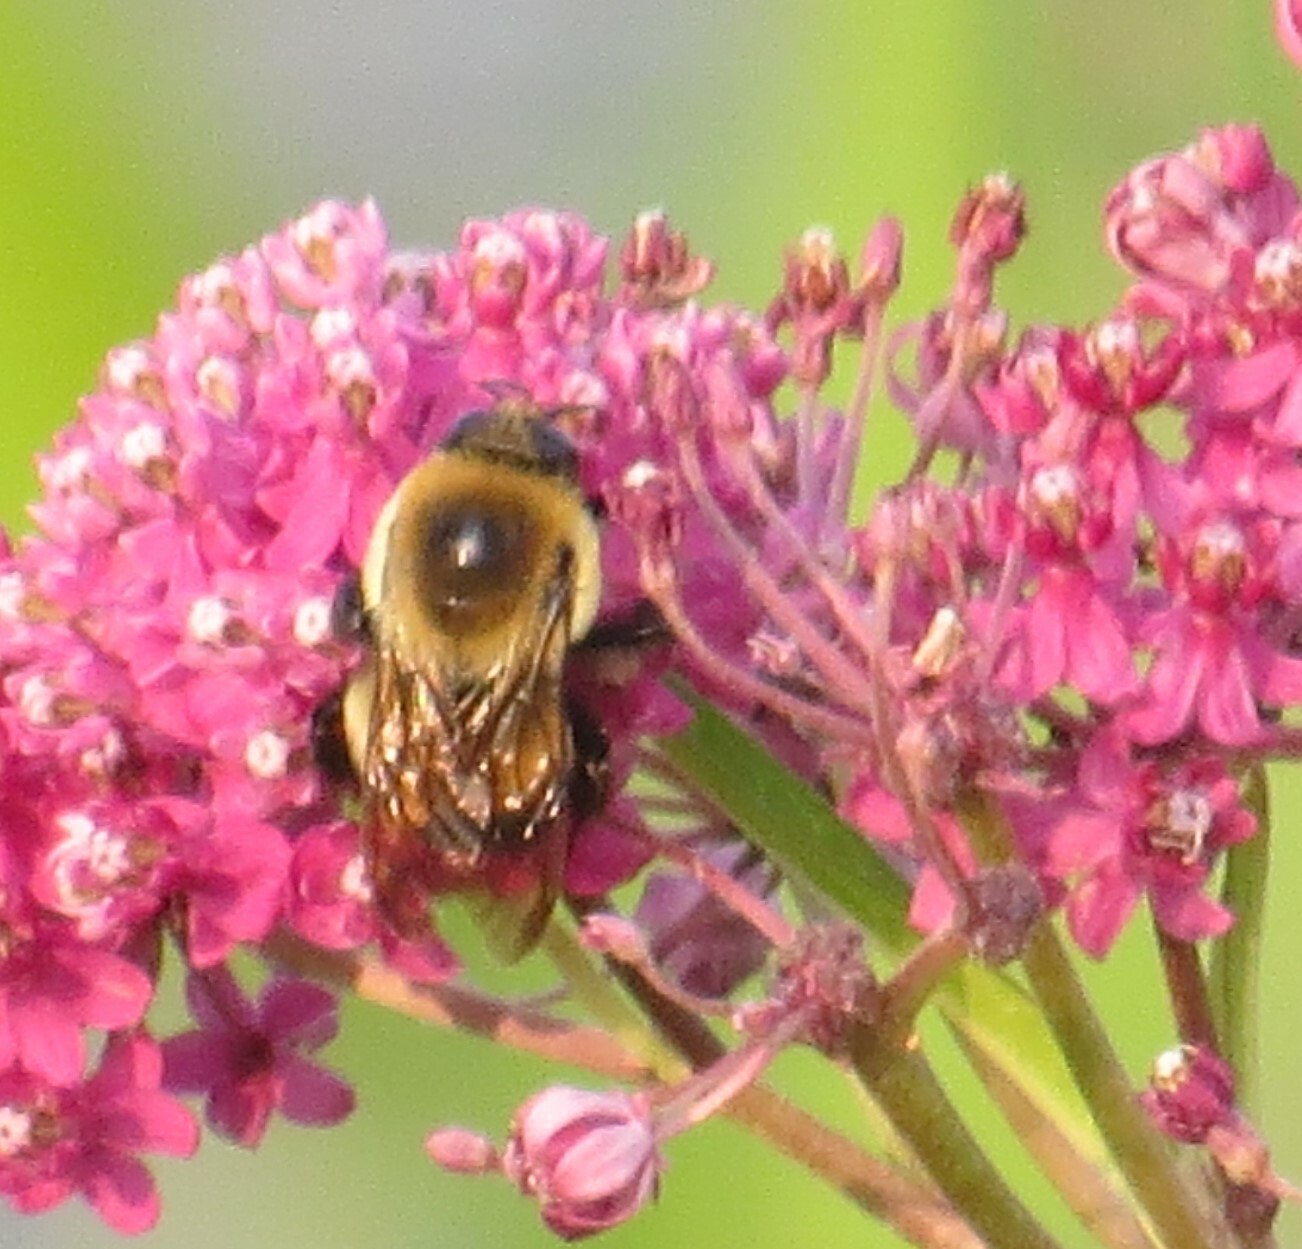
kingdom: Animalia
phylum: Arthropoda
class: Insecta
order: Hymenoptera
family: Apidae
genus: Bombus
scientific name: Bombus griseocollis
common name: Brown-belted bumble bee
